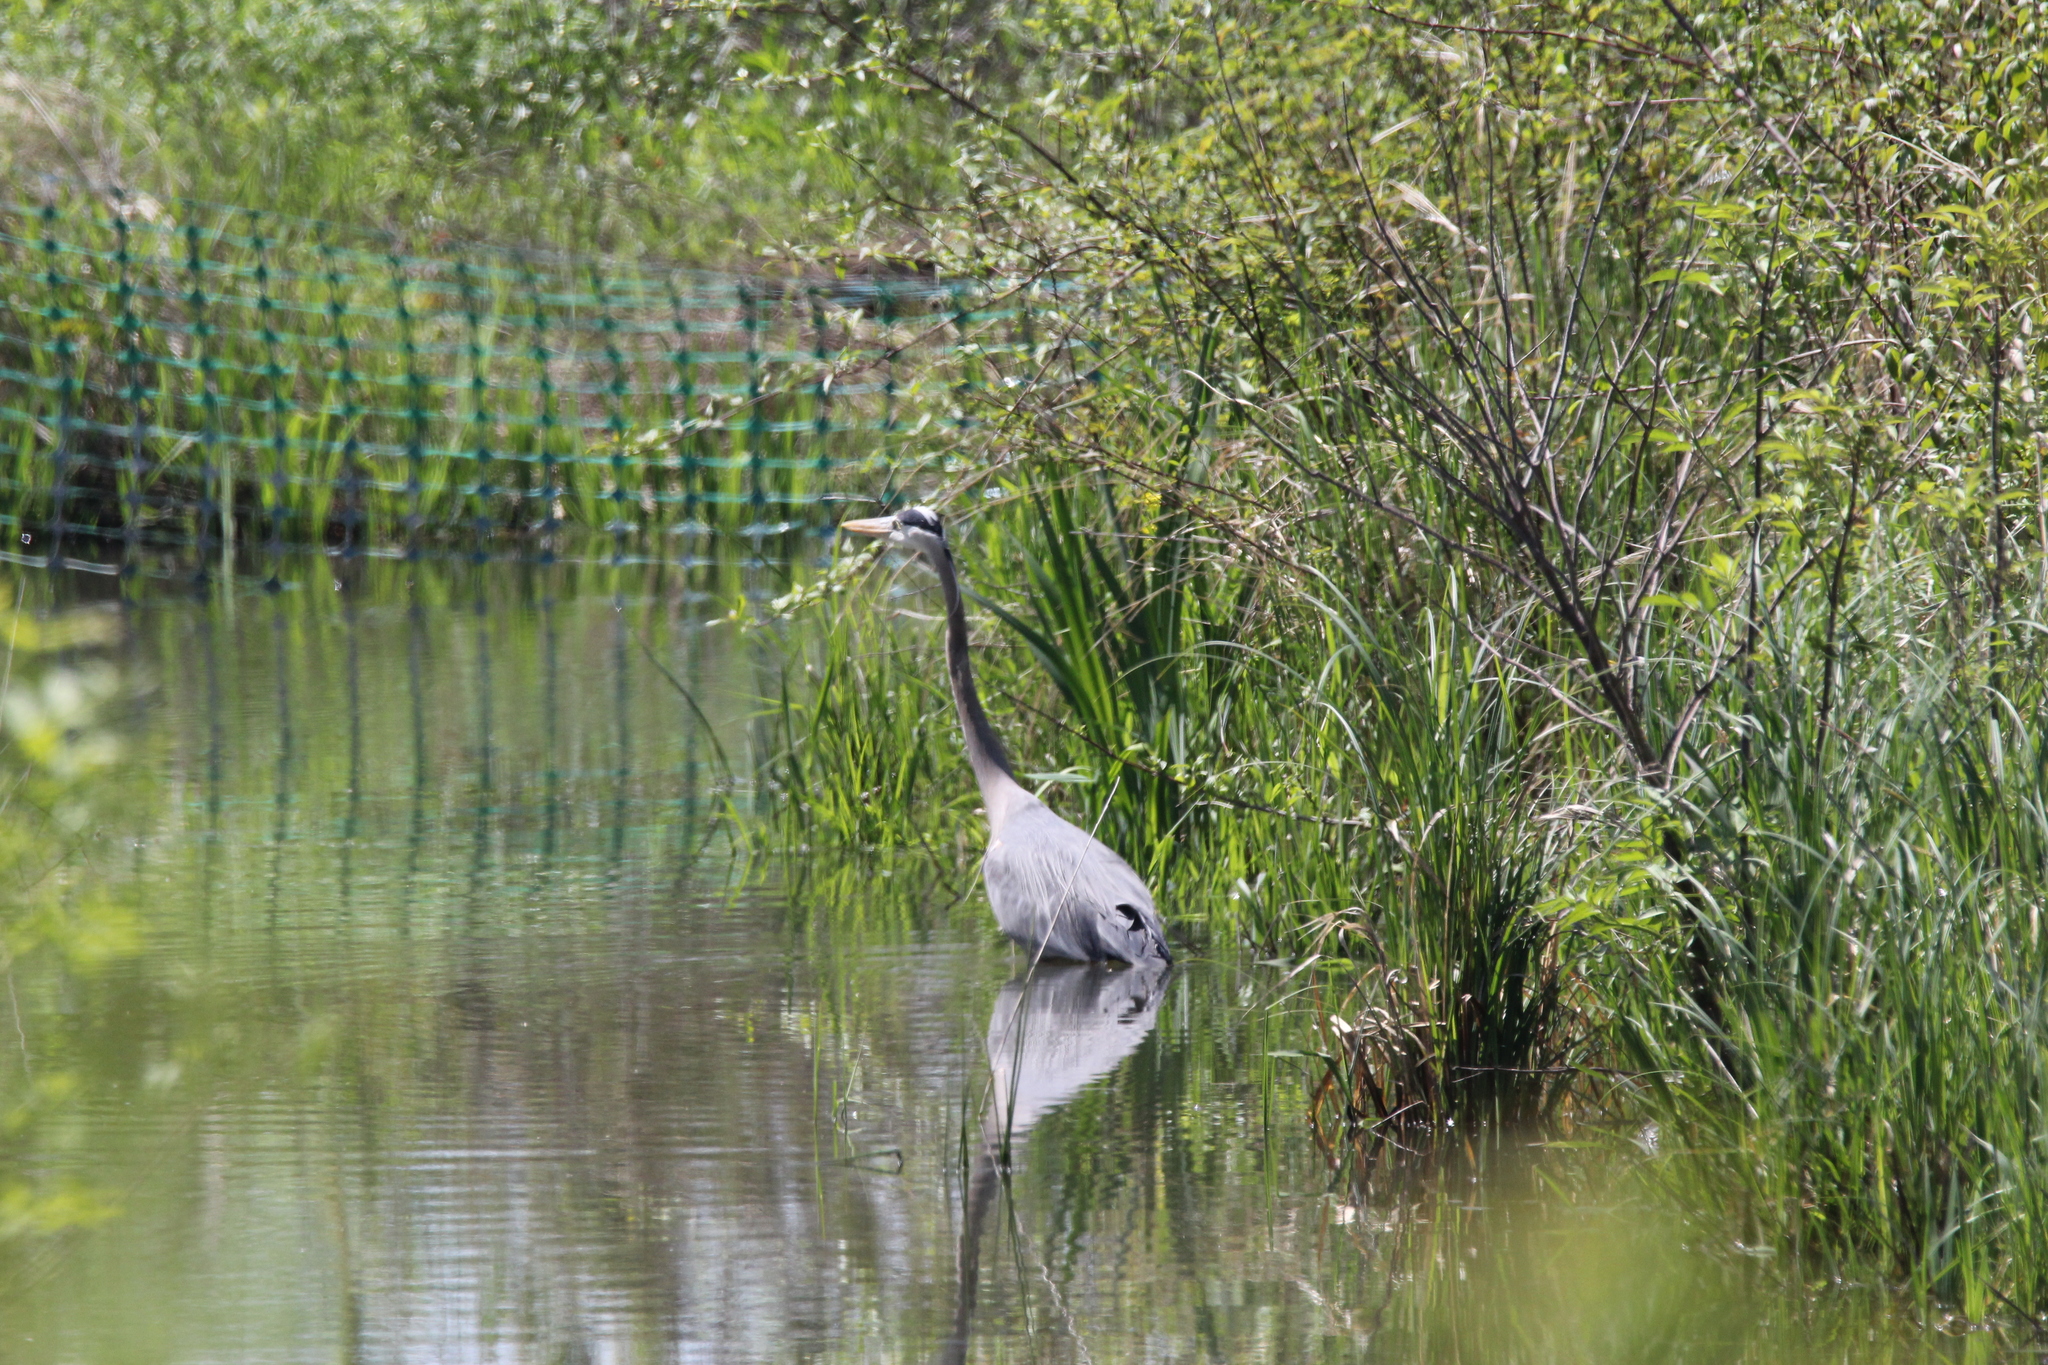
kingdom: Animalia
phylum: Chordata
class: Aves
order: Pelecaniformes
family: Ardeidae
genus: Ardea
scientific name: Ardea herodias
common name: Great blue heron
